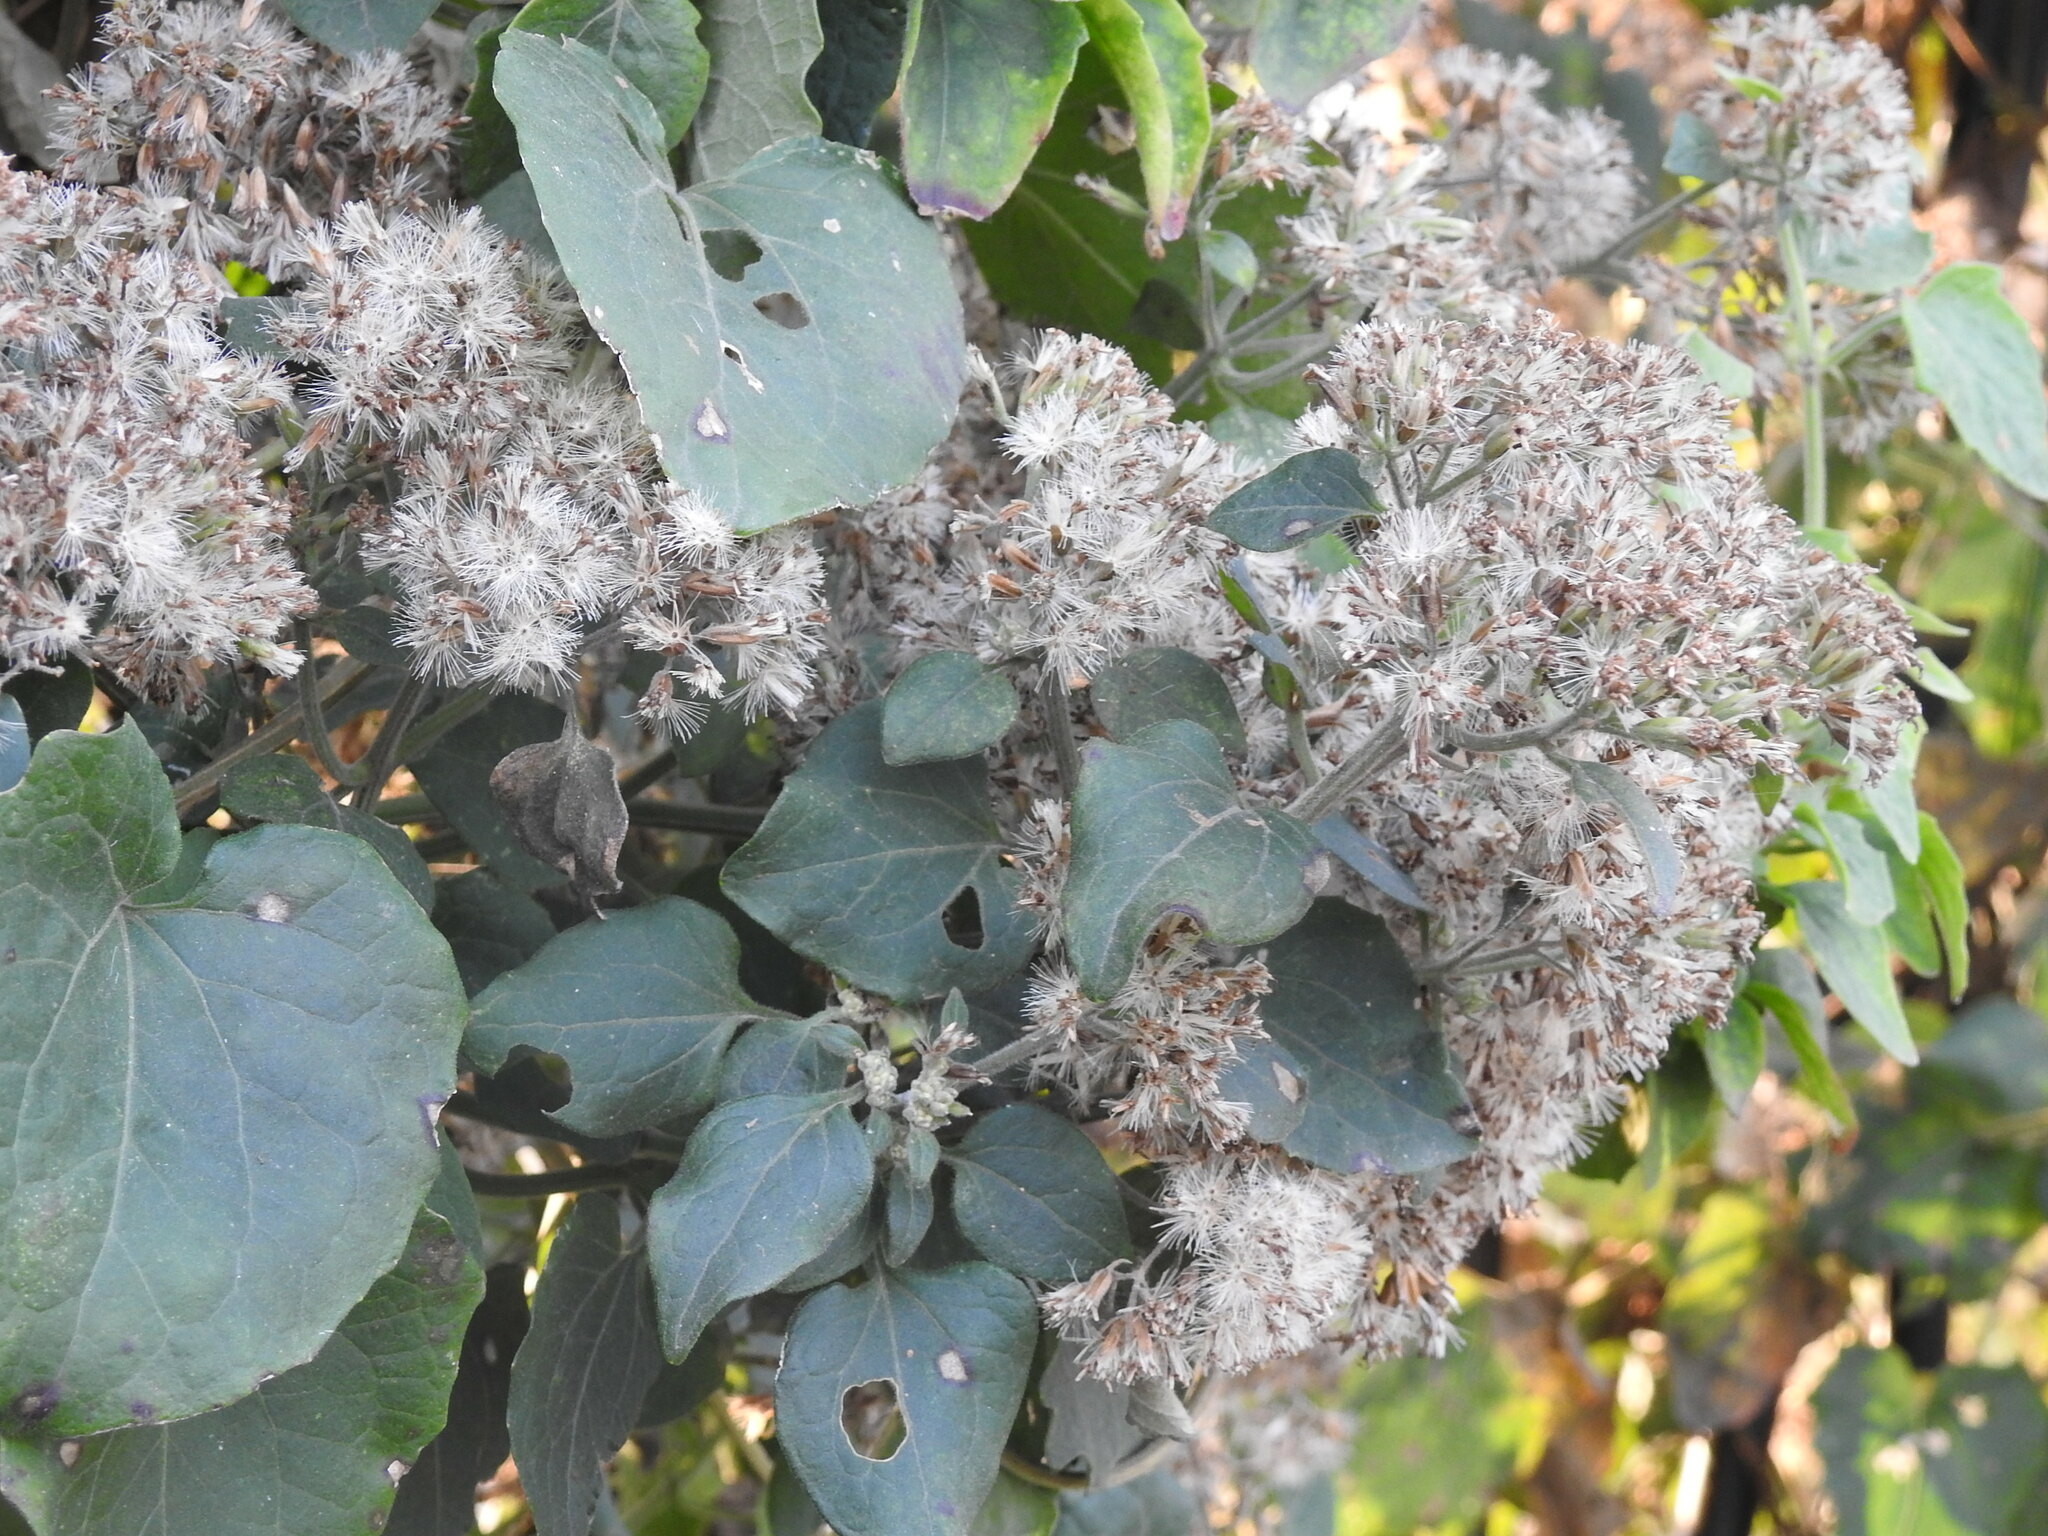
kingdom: Plantae
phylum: Tracheophyta
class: Magnoliopsida
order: Asterales
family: Asteraceae
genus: Mikania
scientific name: Mikania cordifolia
